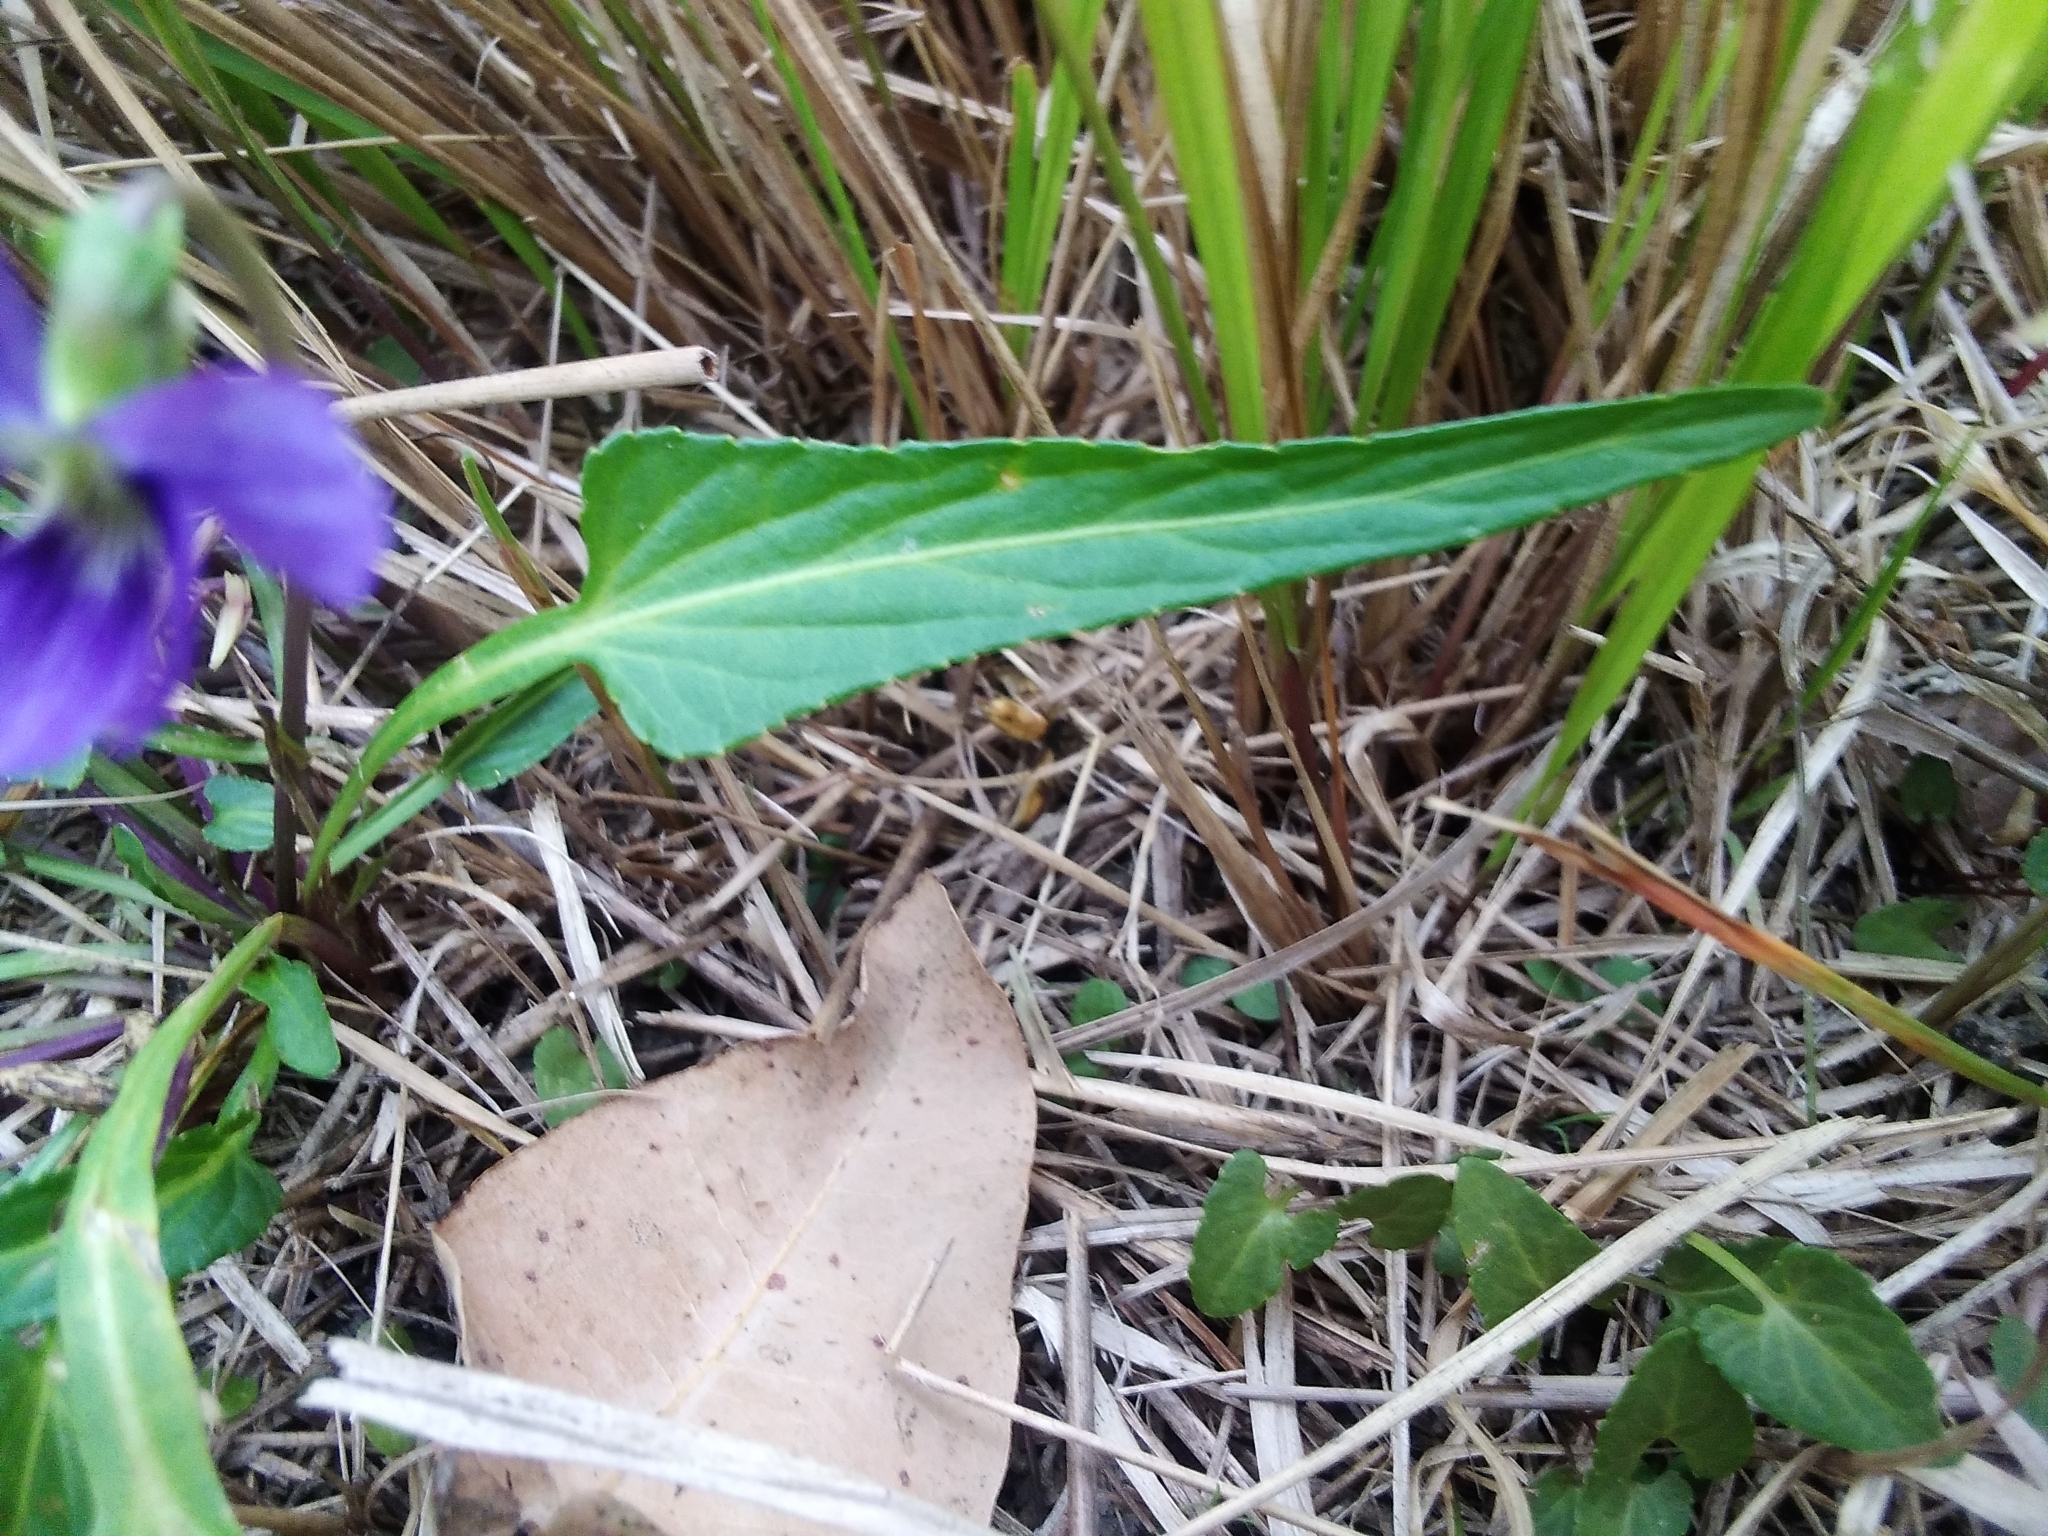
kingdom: Plantae
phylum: Tracheophyta
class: Magnoliopsida
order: Malpighiales
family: Violaceae
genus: Viola
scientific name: Viola betonicifolia
